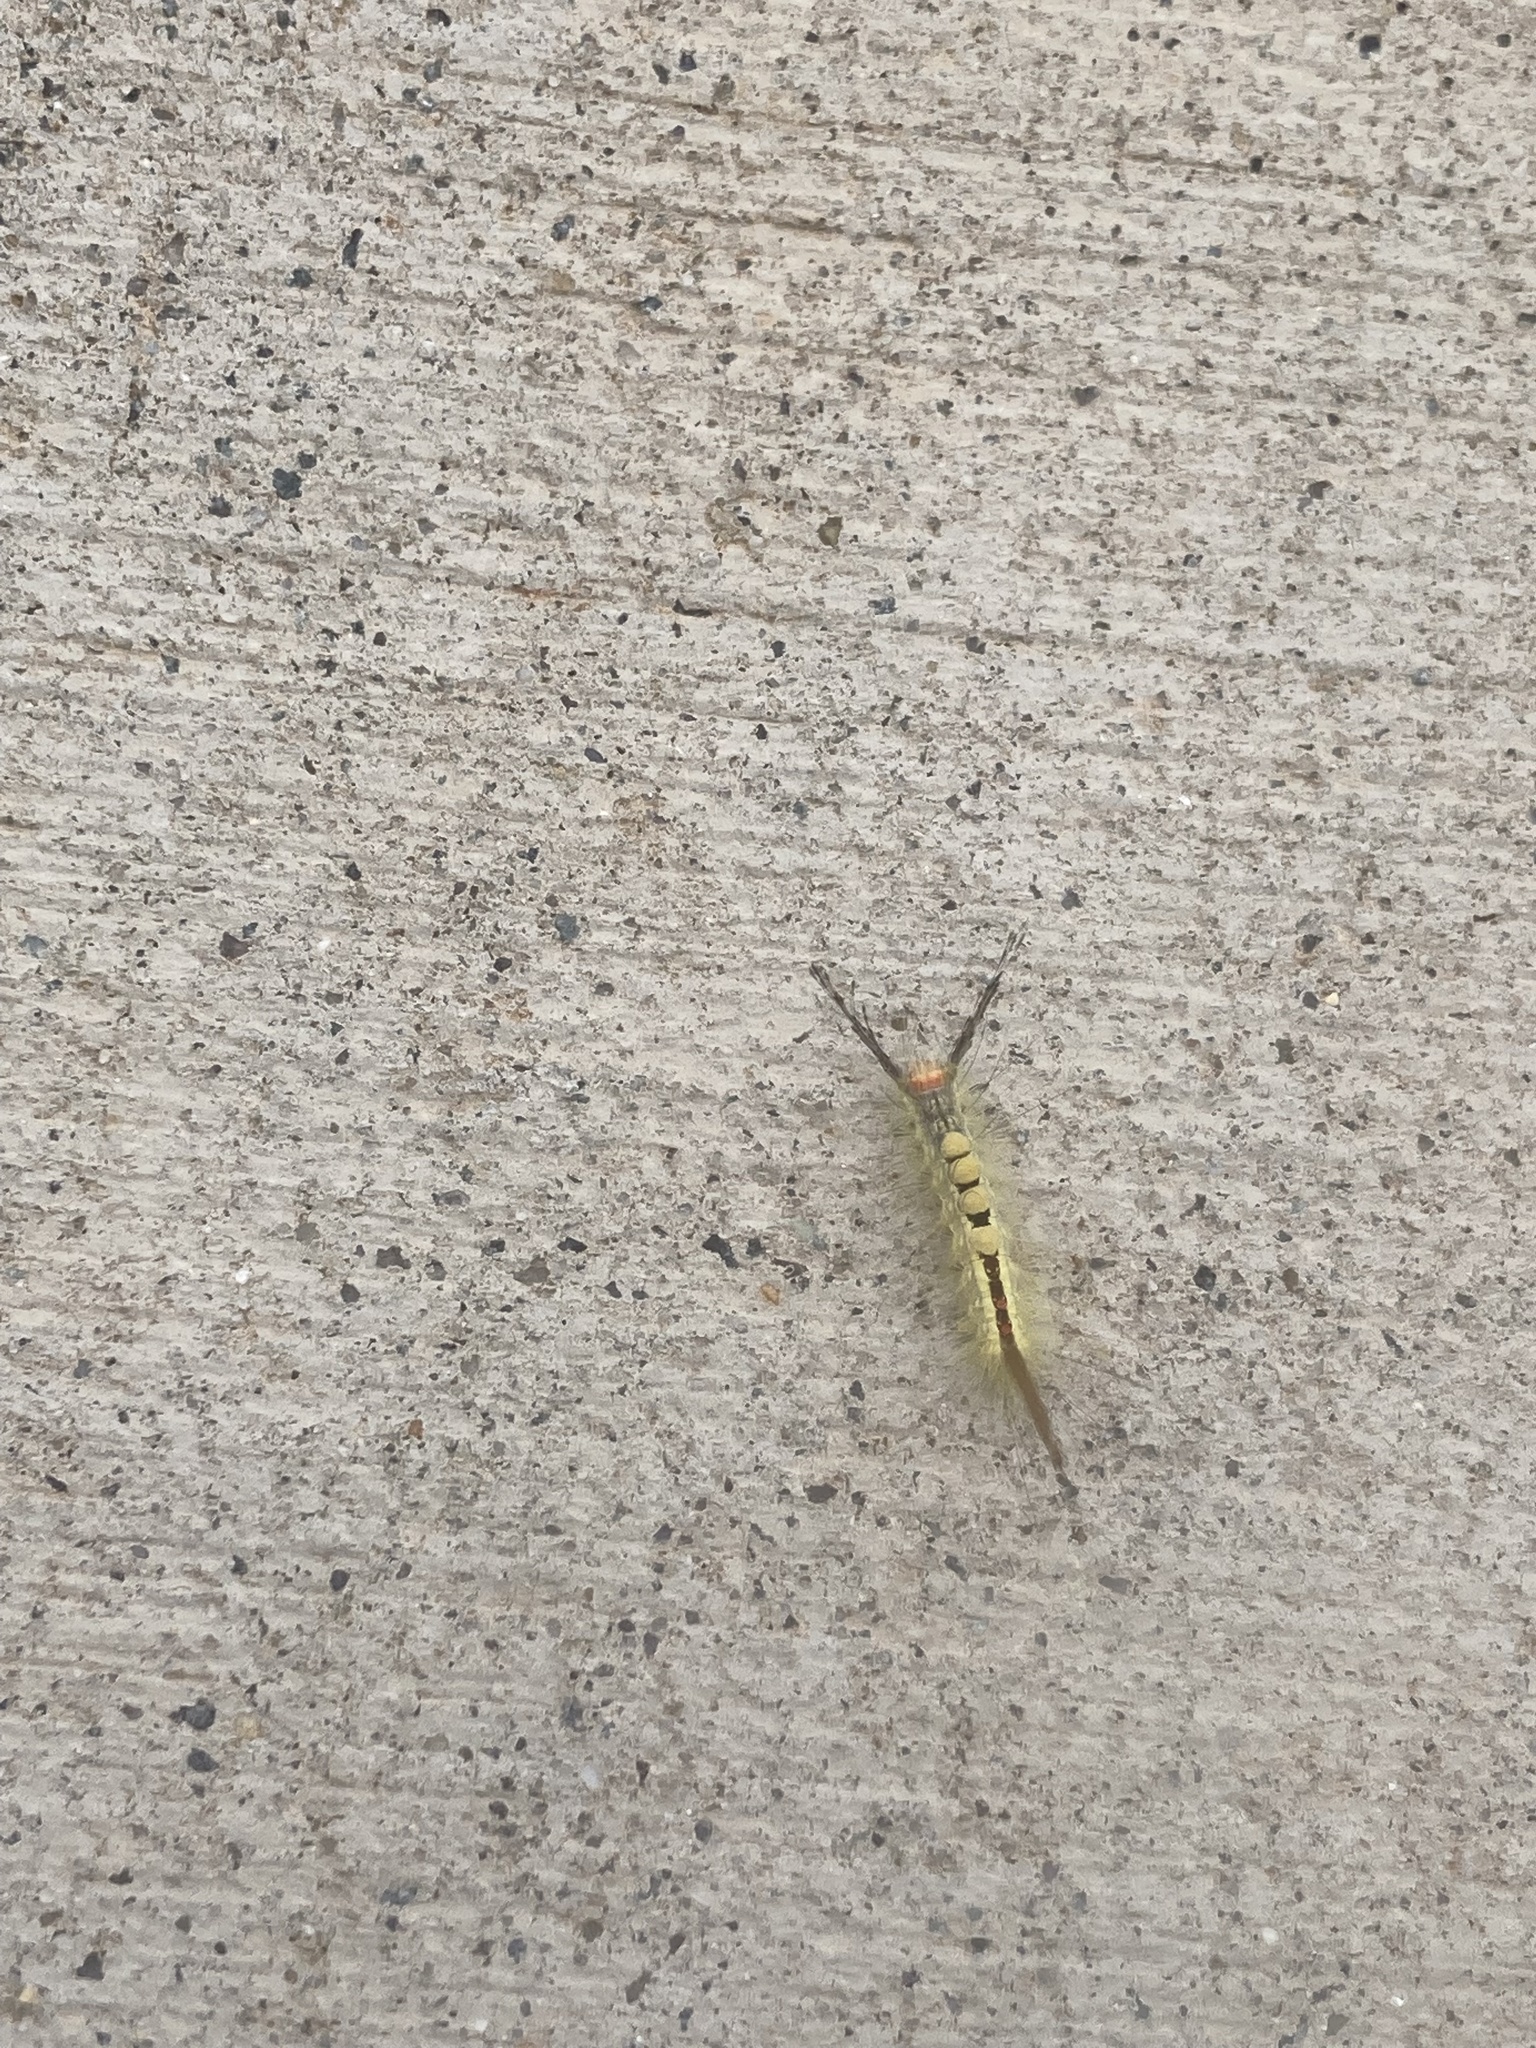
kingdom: Animalia
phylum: Arthropoda
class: Insecta
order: Lepidoptera
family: Erebidae
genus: Orgyia
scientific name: Orgyia leucostigma
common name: White-marked tussock moth
